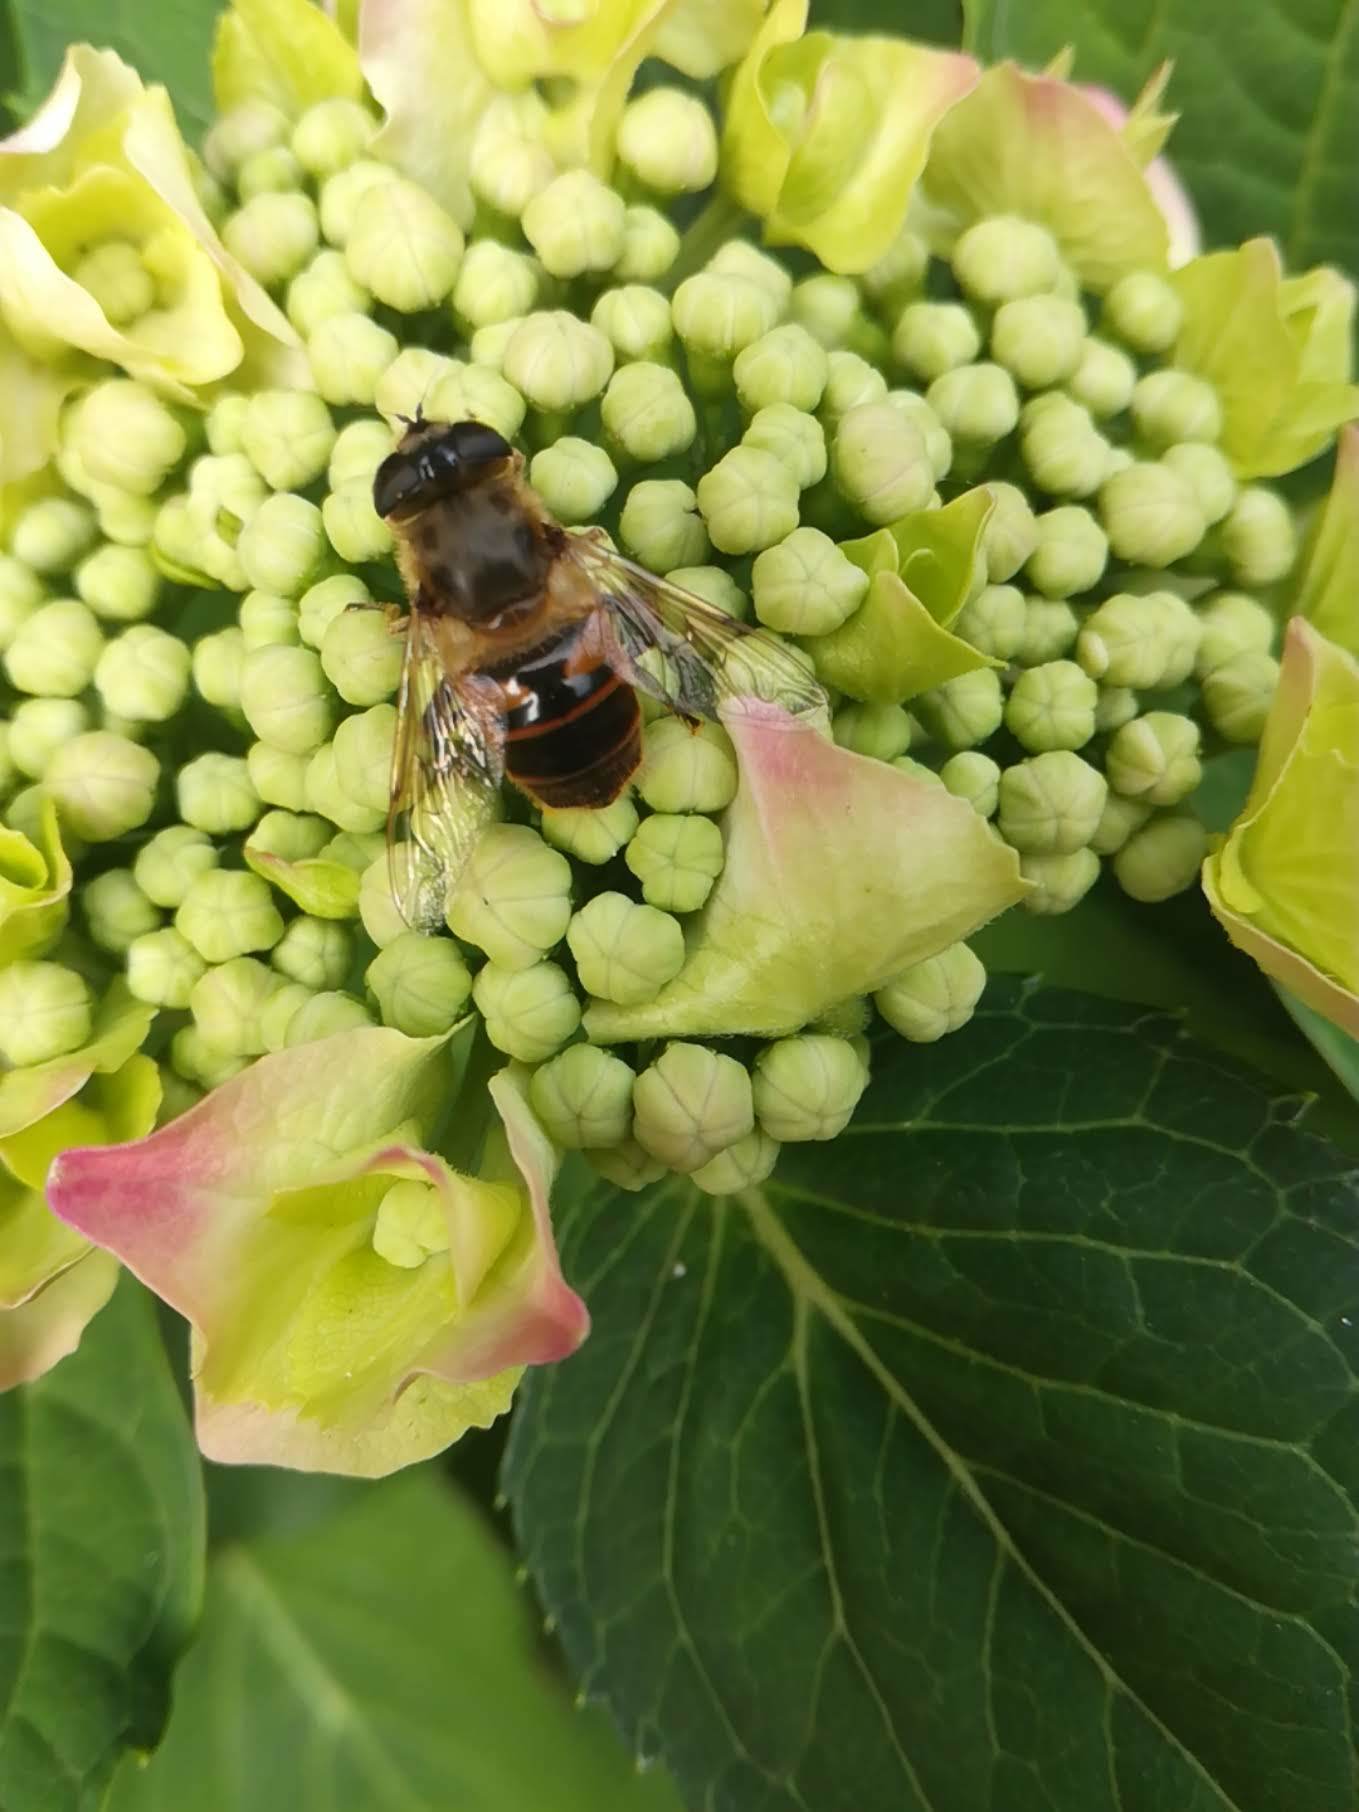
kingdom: Animalia
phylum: Arthropoda
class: Insecta
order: Diptera
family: Syrphidae
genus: Eristalis
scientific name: Eristalis tenax
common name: Drone fly
